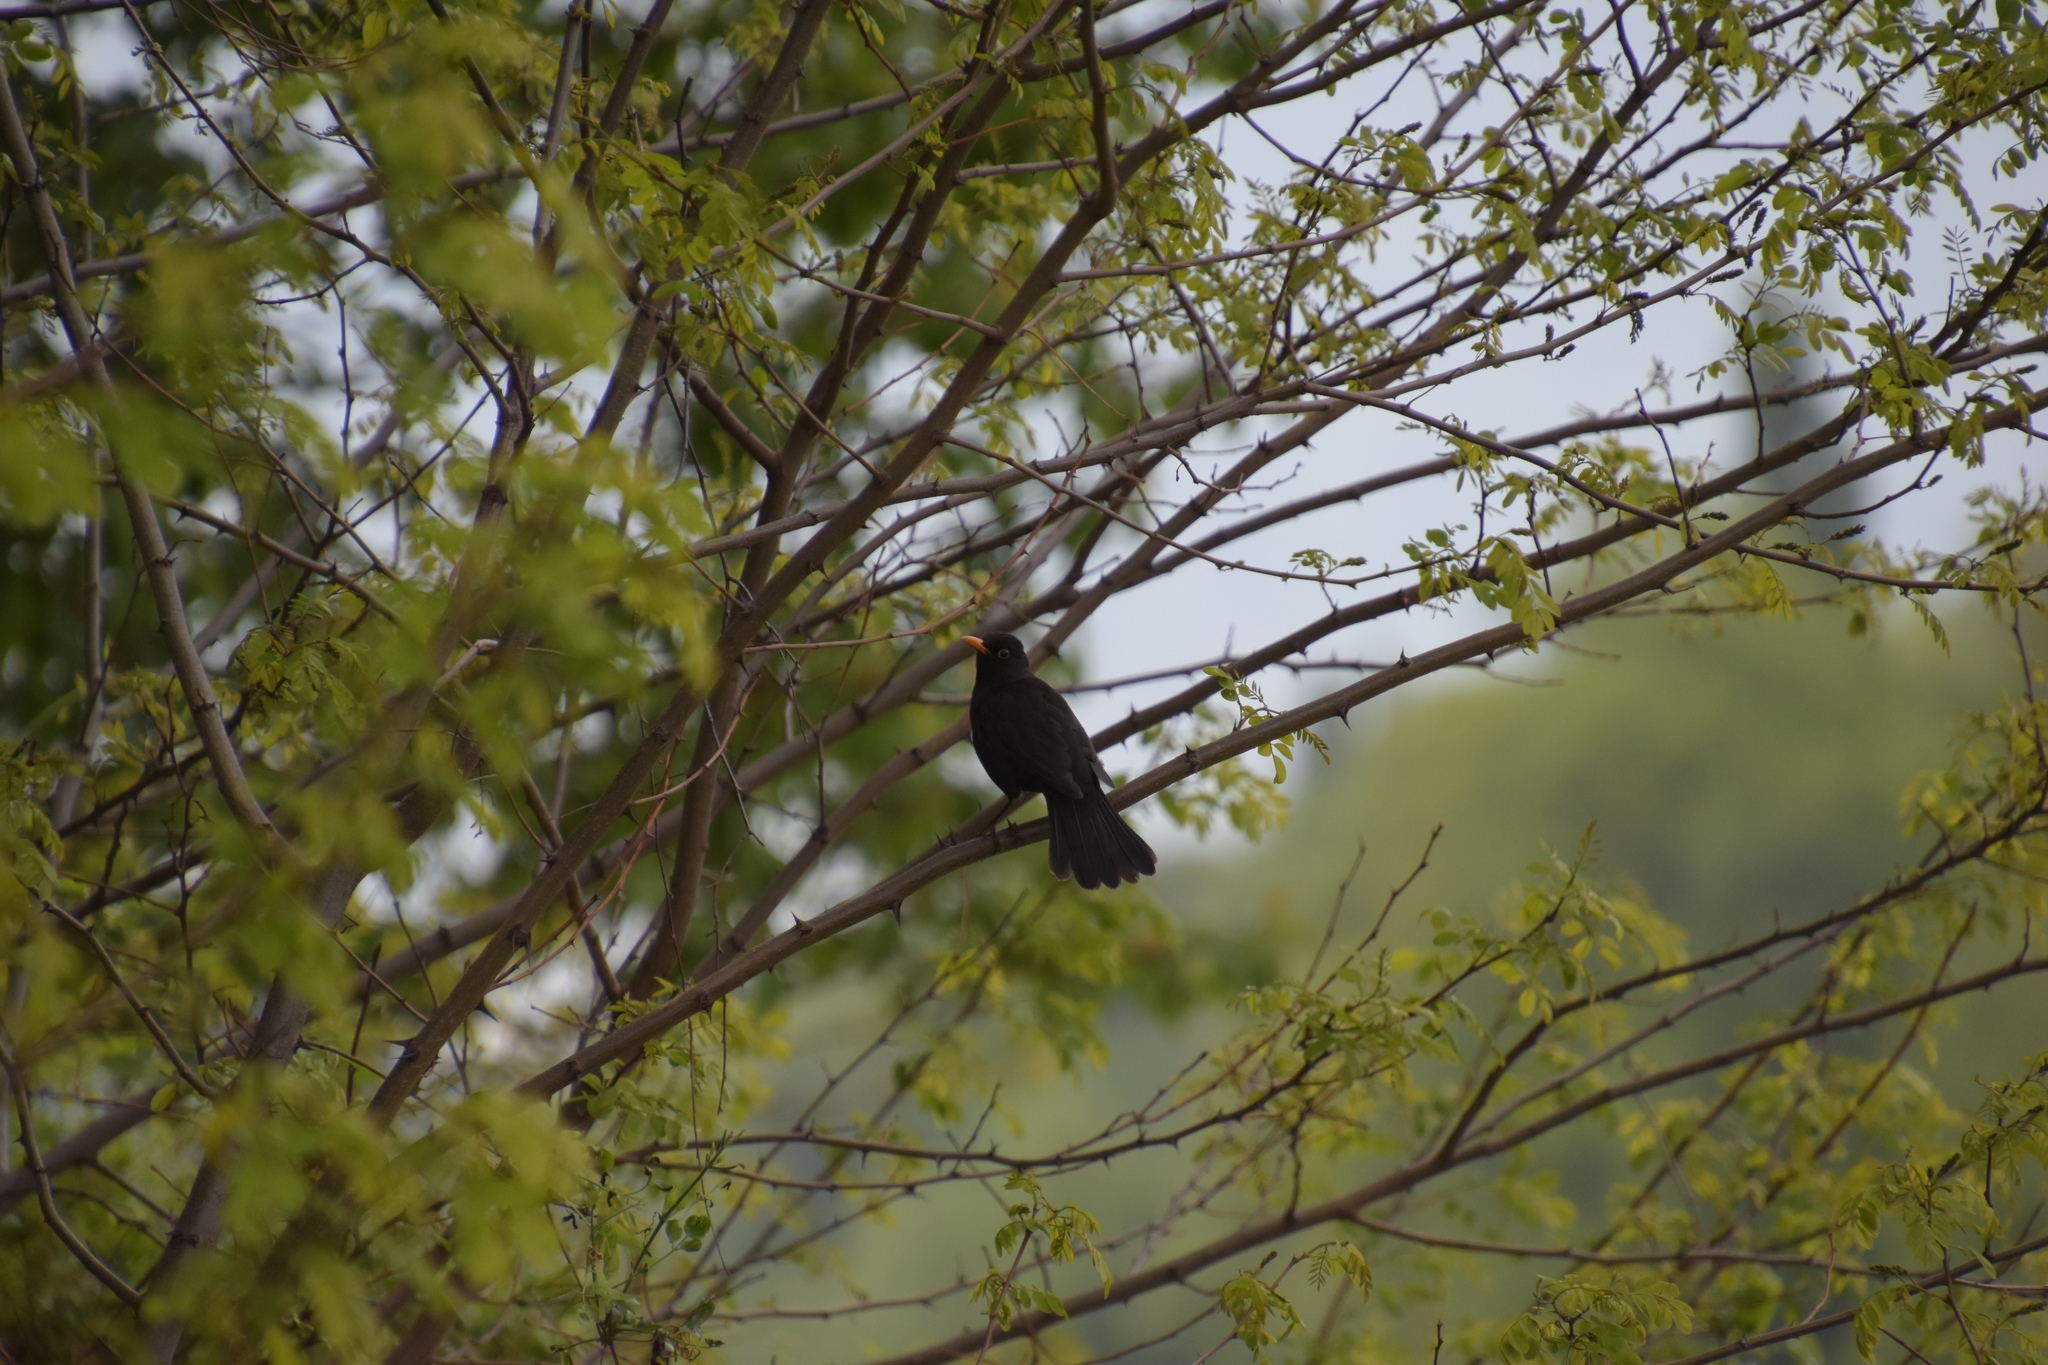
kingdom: Animalia
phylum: Chordata
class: Aves
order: Passeriformes
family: Turdidae
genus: Turdus
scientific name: Turdus merula
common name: Common blackbird
